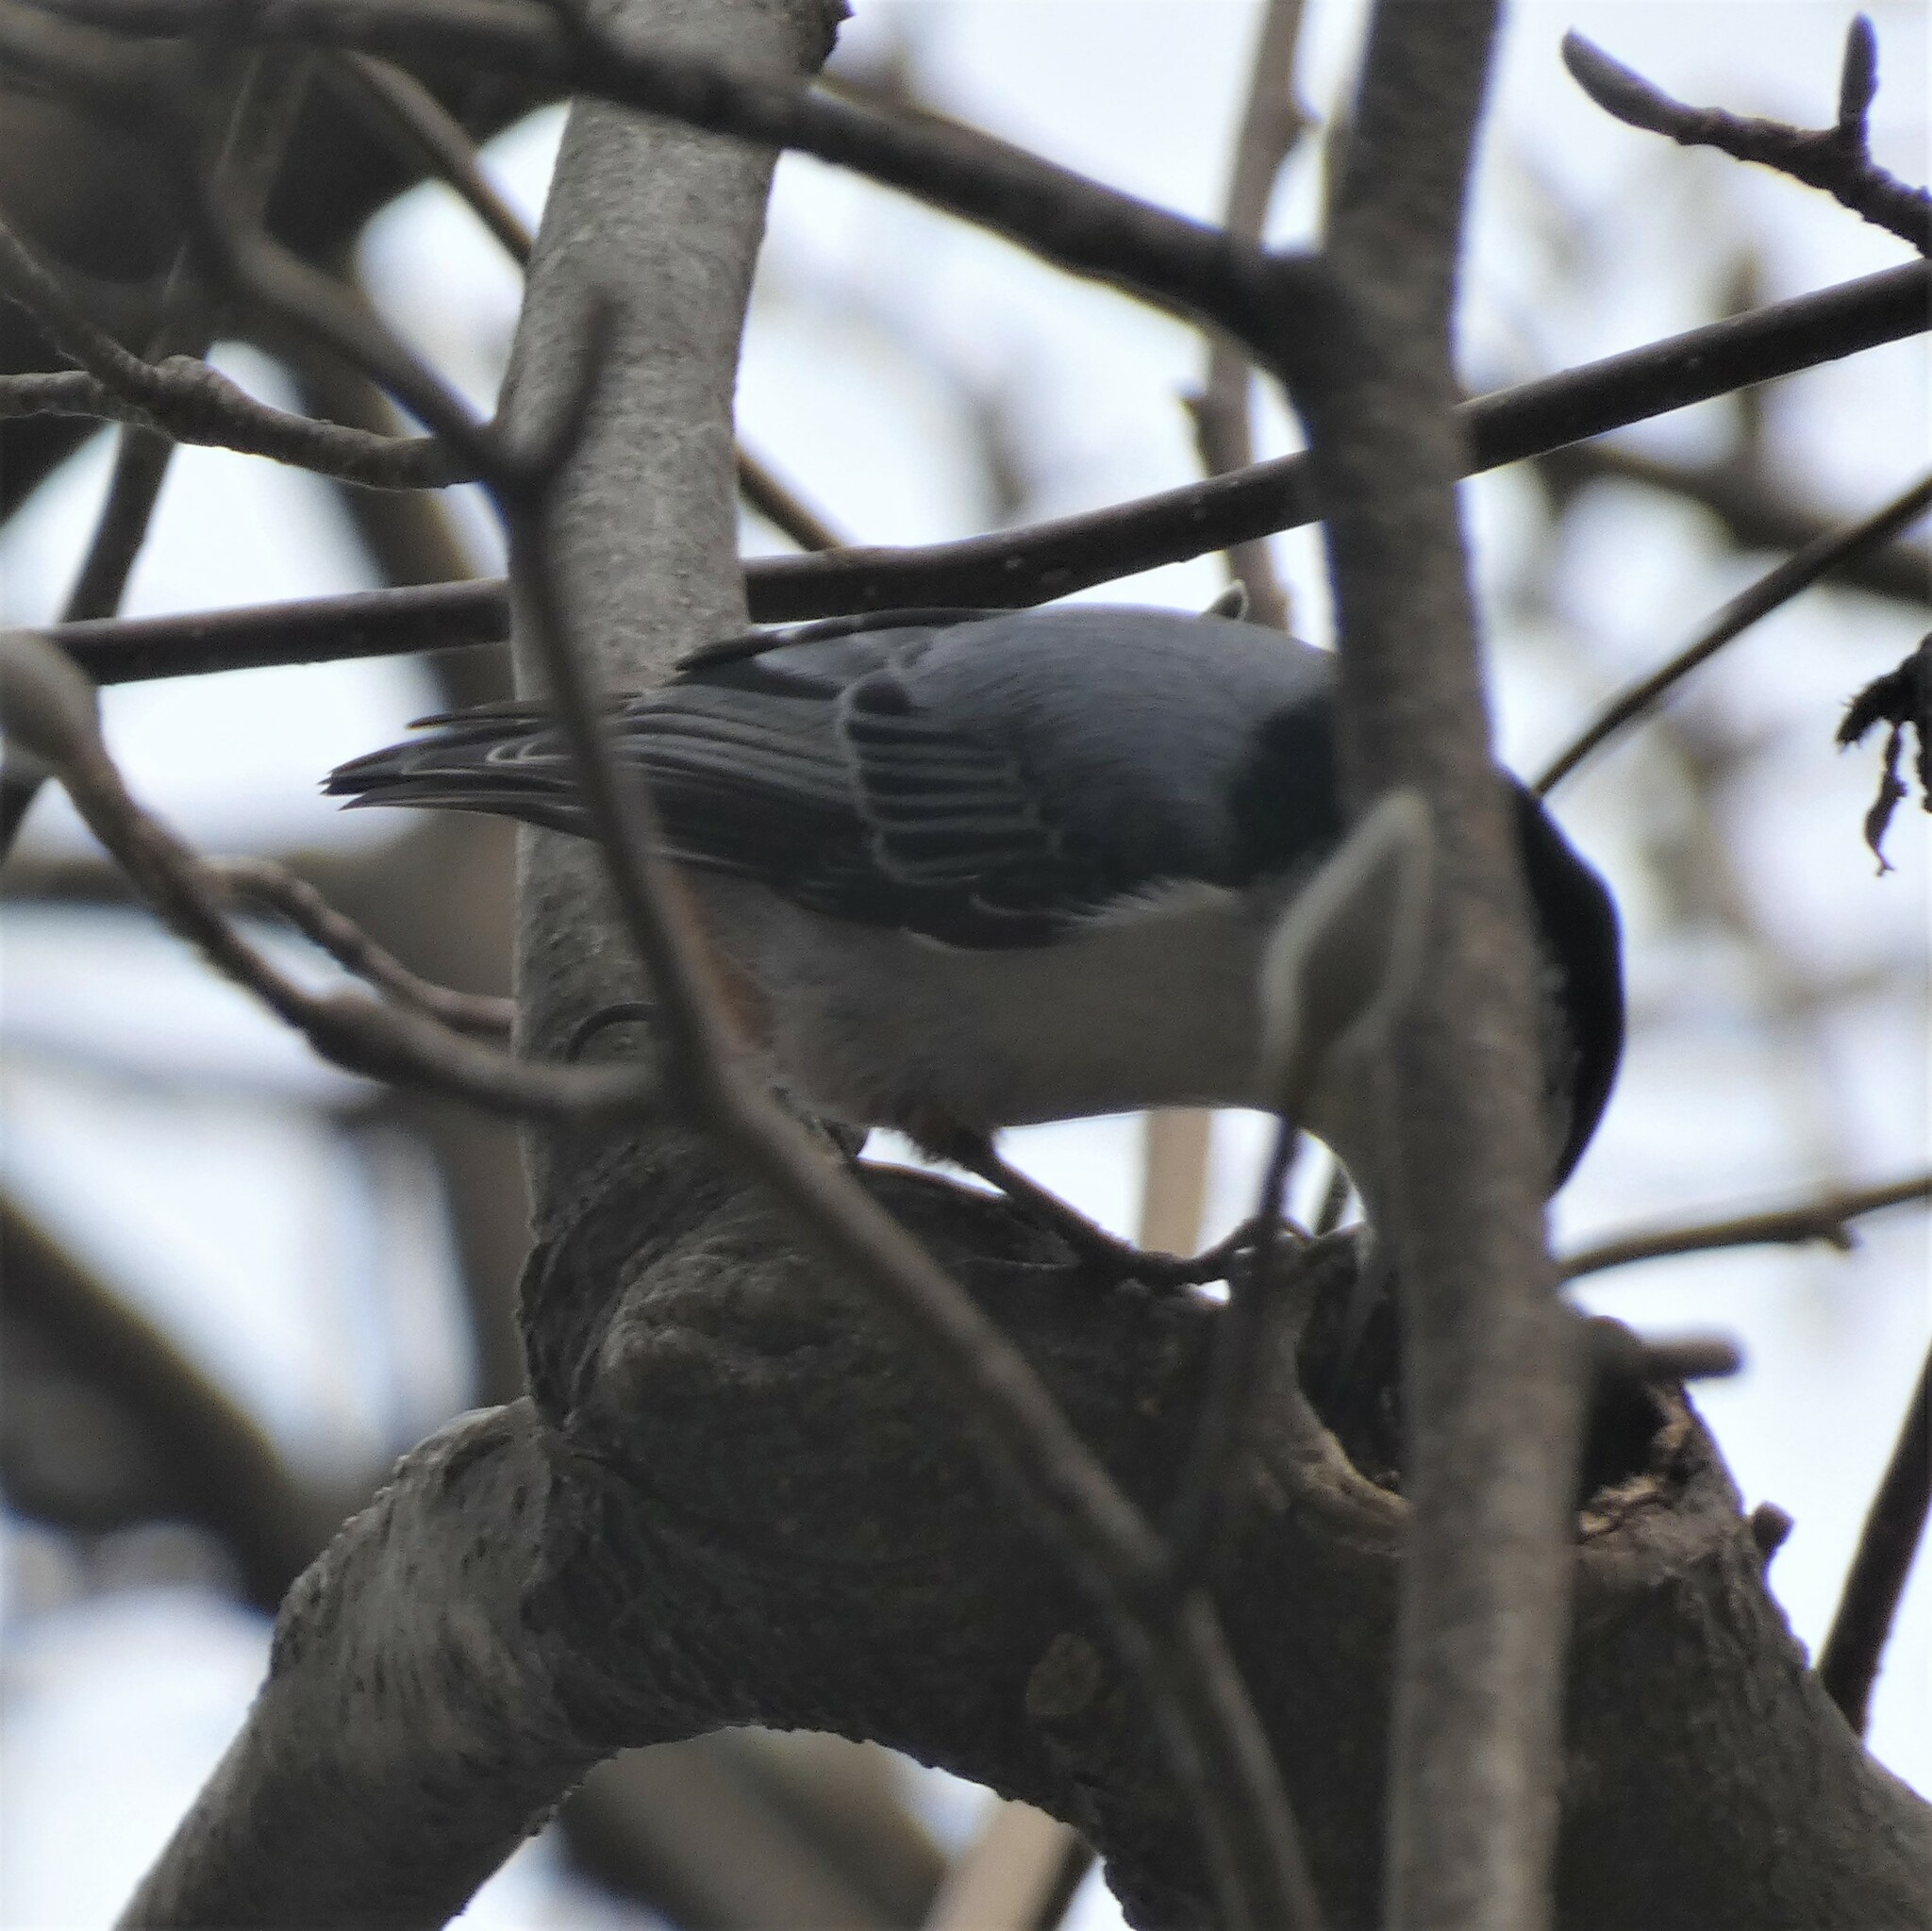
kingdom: Animalia
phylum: Chordata
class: Aves
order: Passeriformes
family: Sittidae
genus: Sitta
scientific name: Sitta carolinensis
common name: White-breasted nuthatch
